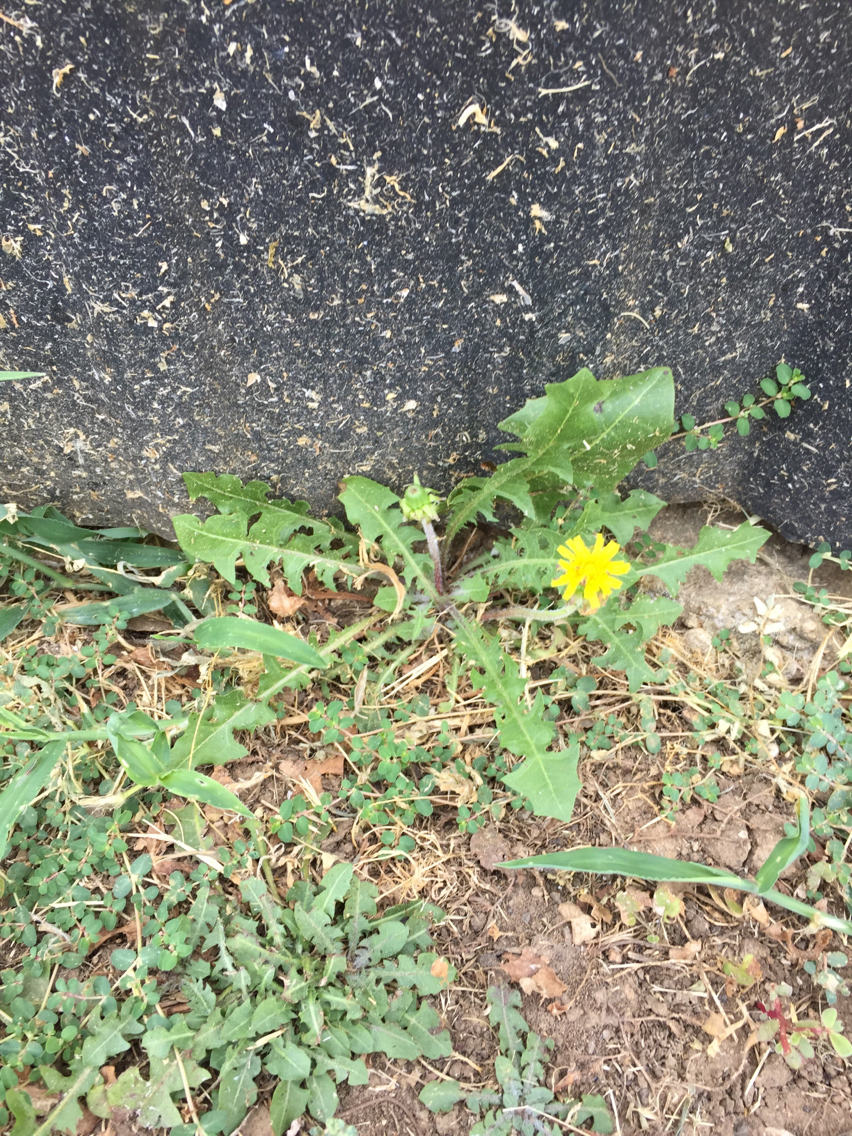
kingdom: Plantae
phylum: Tracheophyta
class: Magnoliopsida
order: Asterales
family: Asteraceae
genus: Taraxacum
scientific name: Taraxacum officinale
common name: Common dandelion
